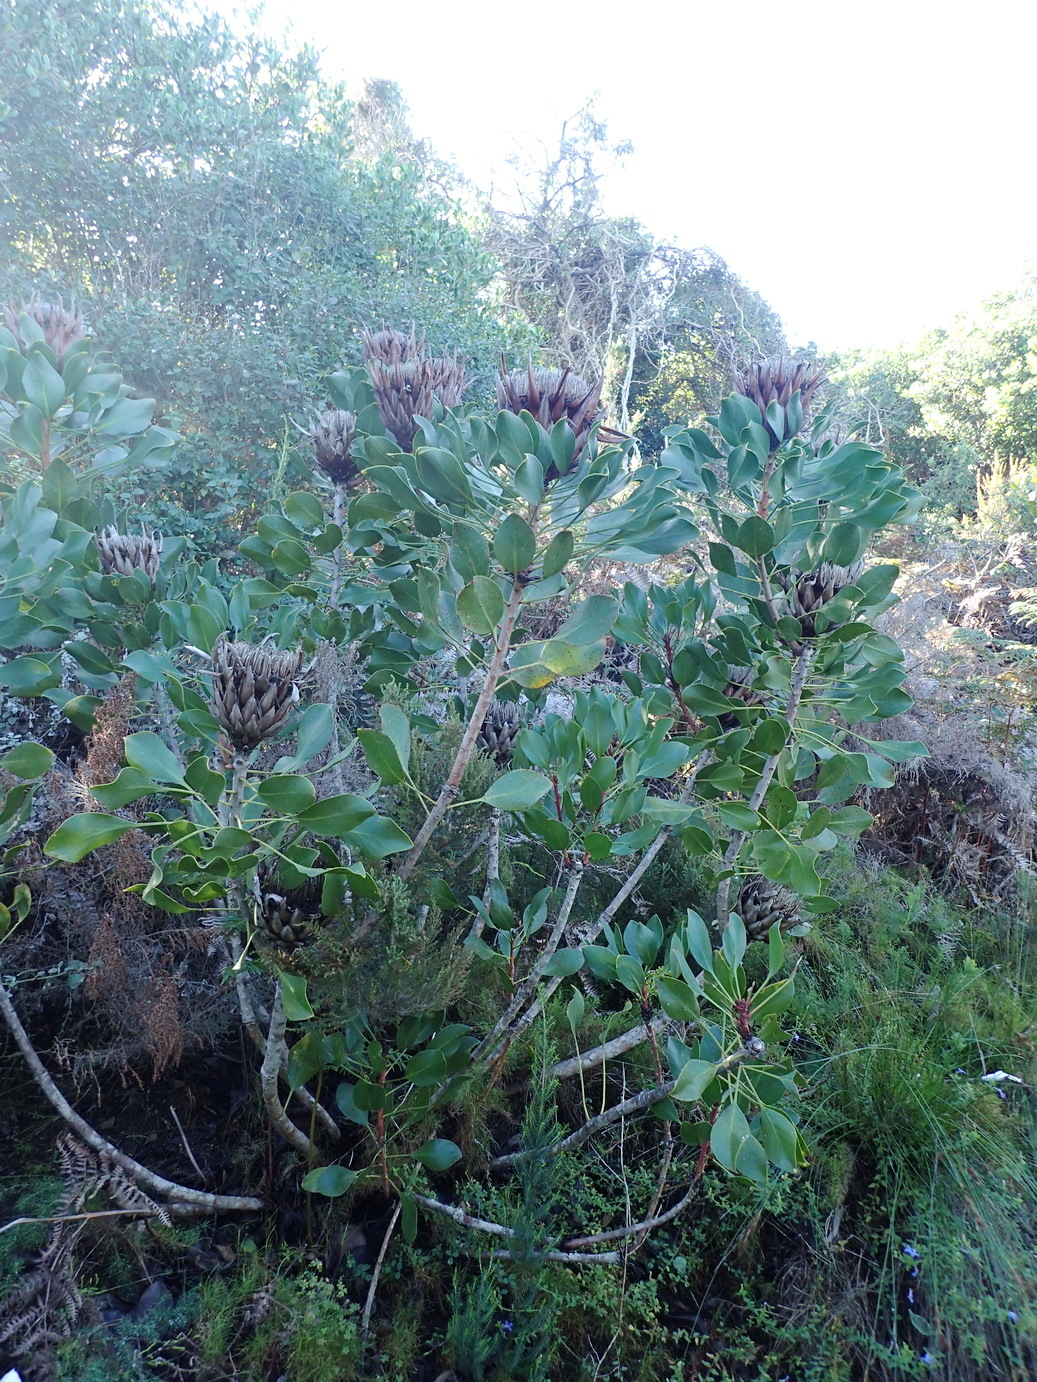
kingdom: Plantae
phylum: Tracheophyta
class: Magnoliopsida
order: Proteales
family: Proteaceae
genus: Protea
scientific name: Protea cynaroides
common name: King protea
